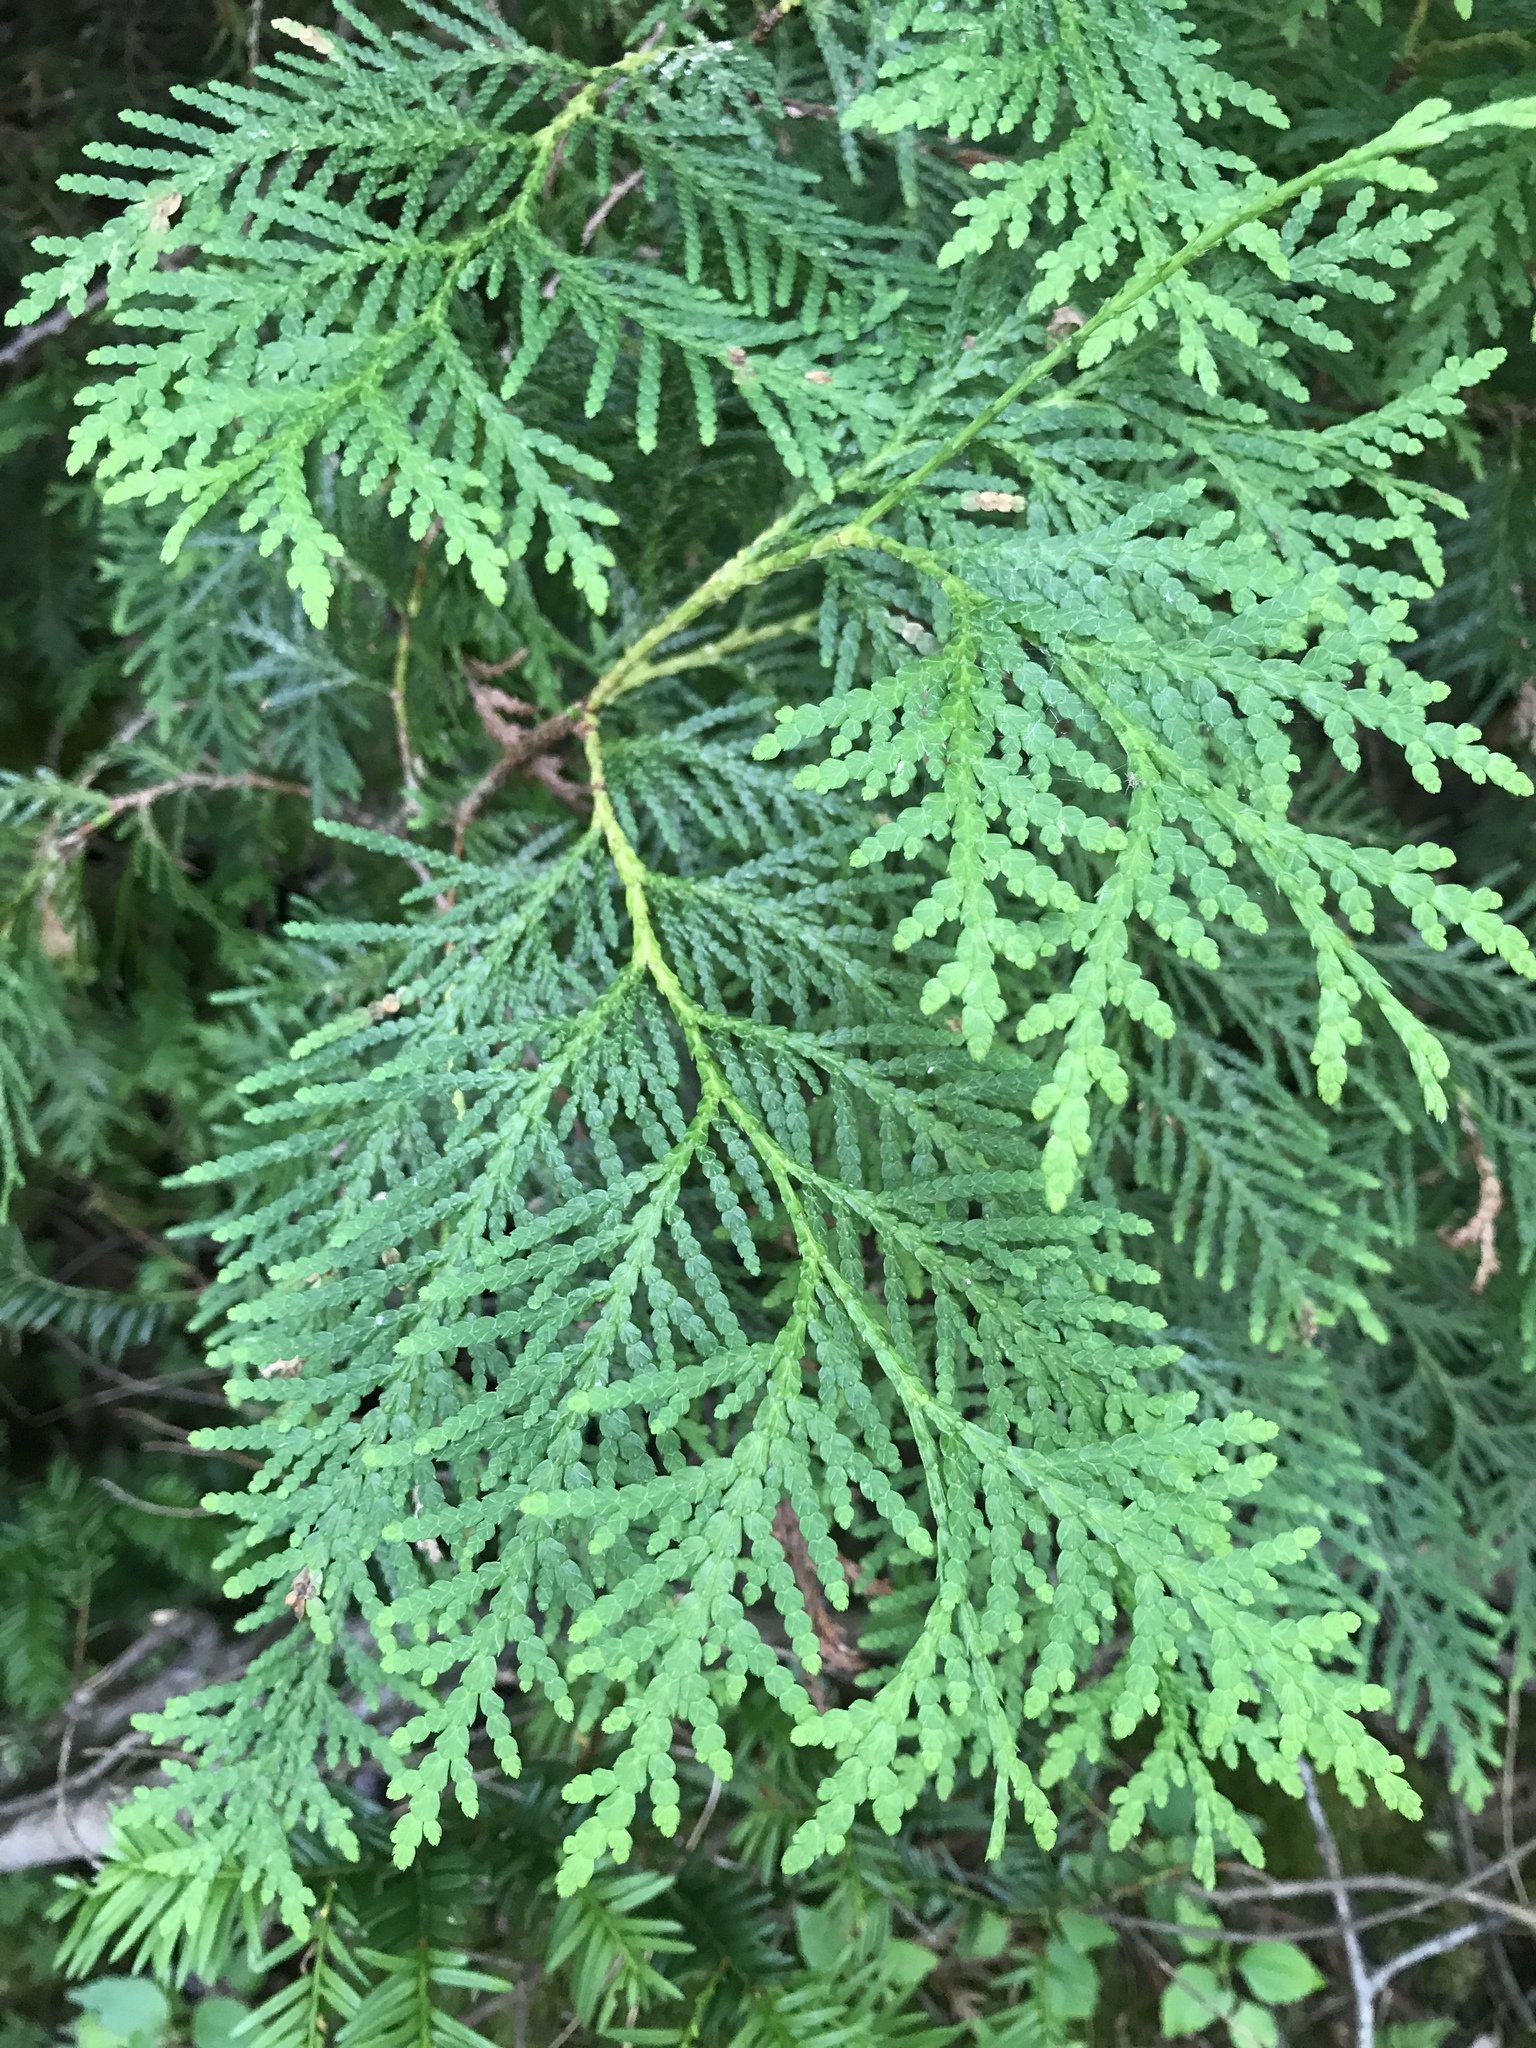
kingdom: Plantae
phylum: Tracheophyta
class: Pinopsida
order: Pinales
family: Cupressaceae
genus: Thuja
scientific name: Thuja occidentalis
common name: Northern white-cedar
